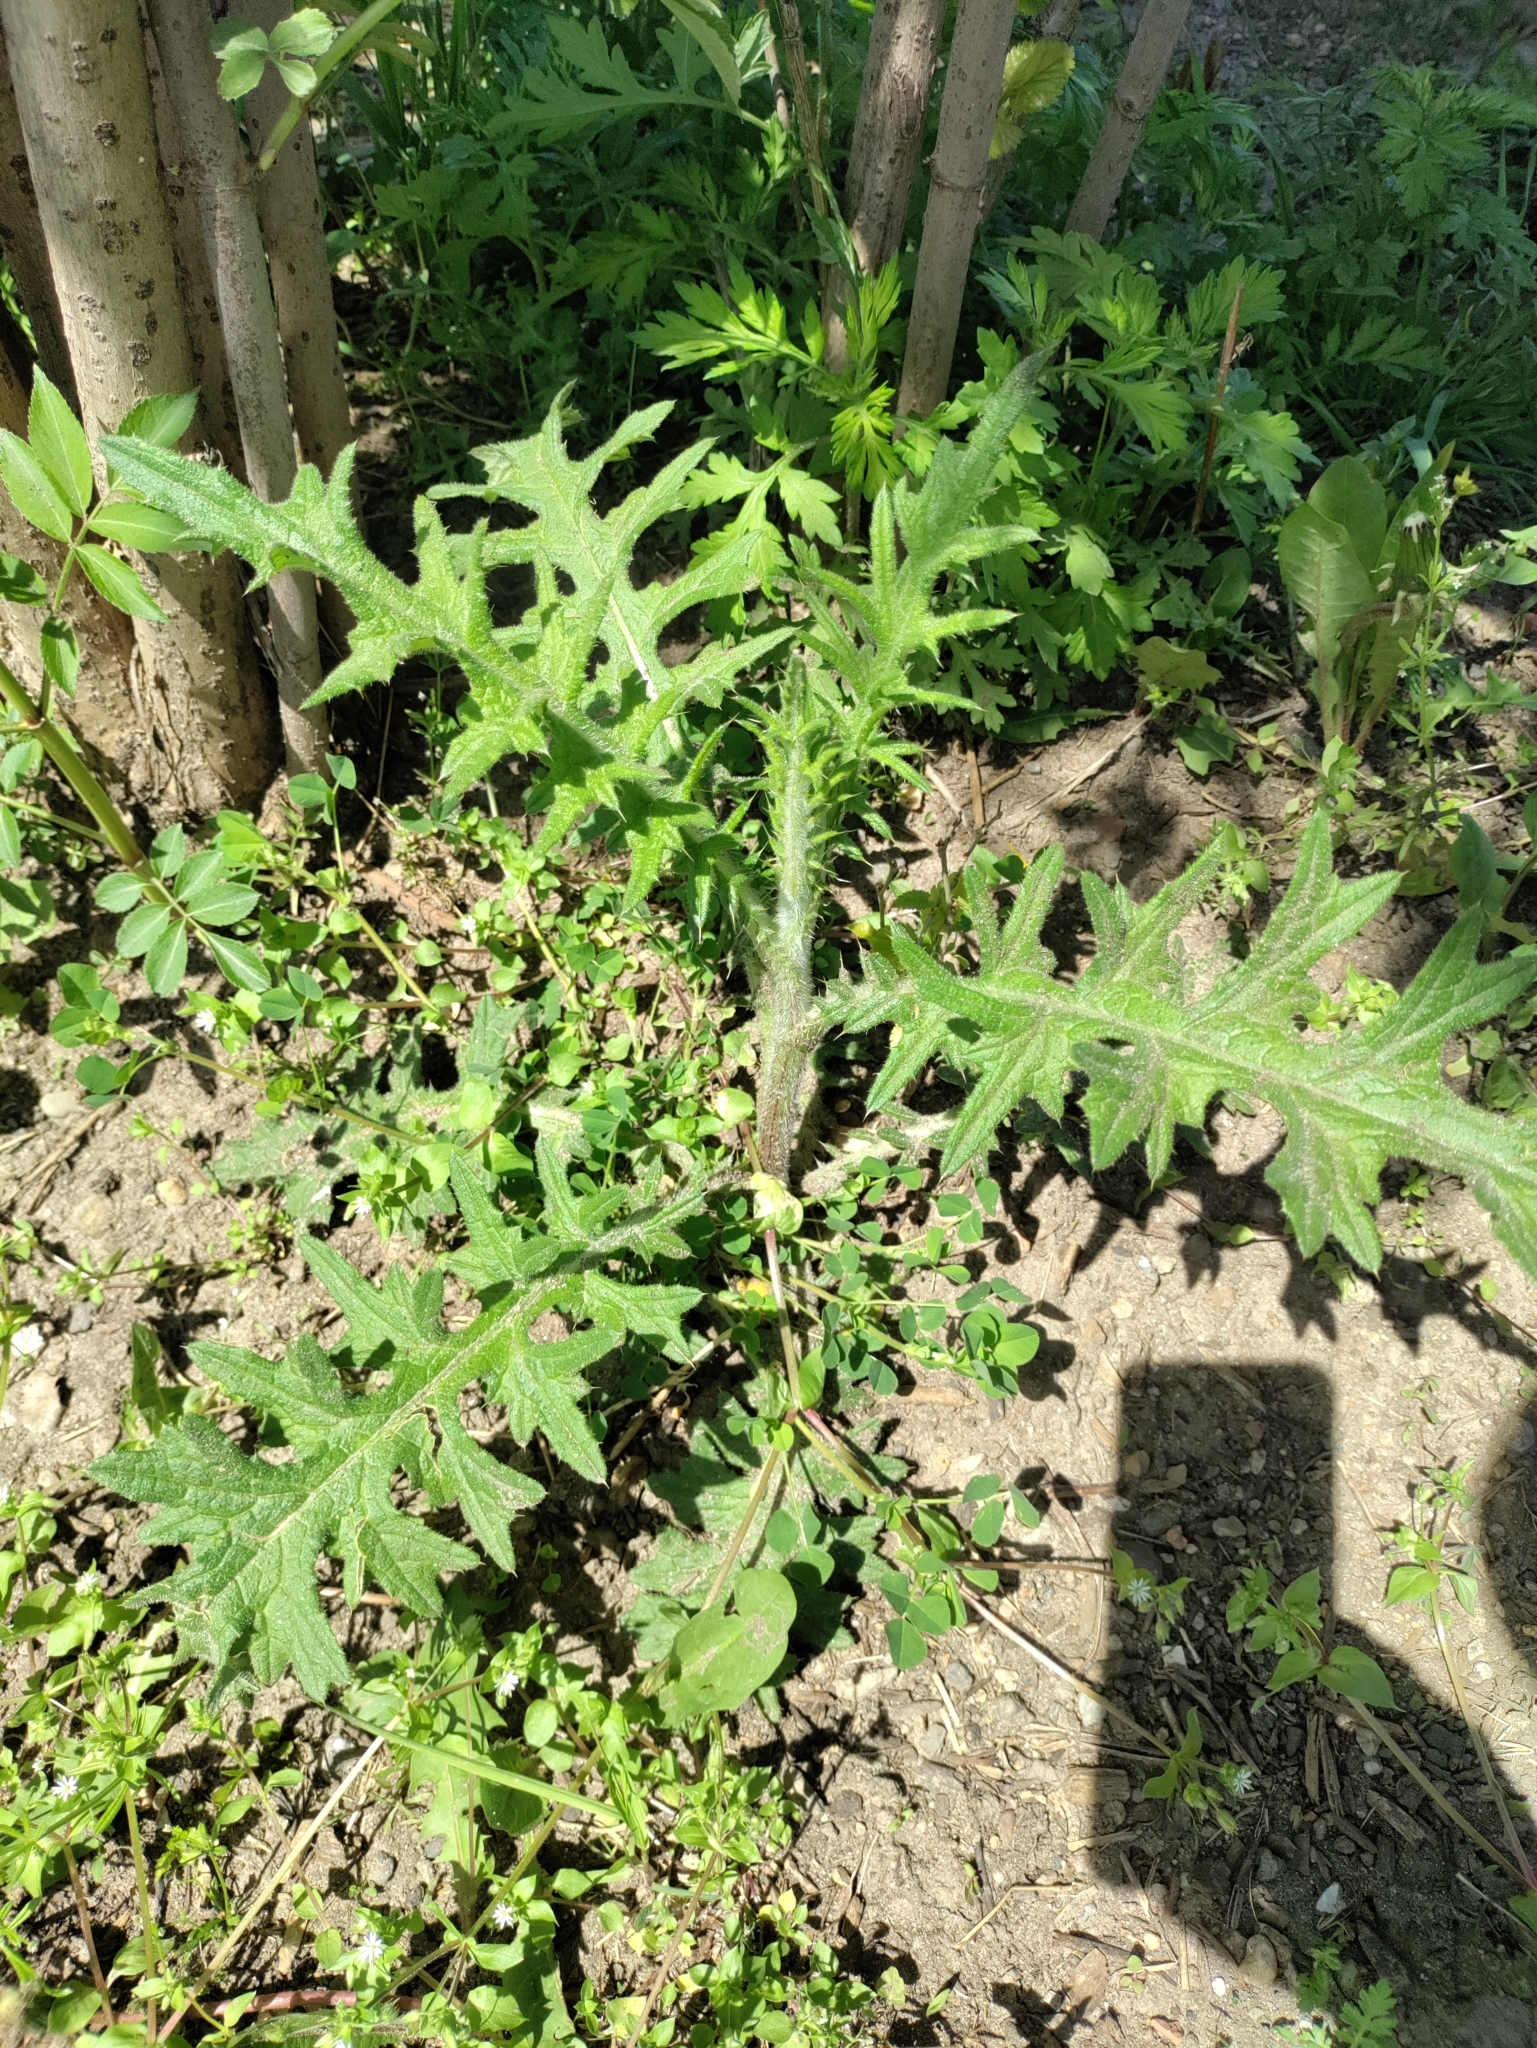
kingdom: Plantae
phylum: Tracheophyta
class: Magnoliopsida
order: Asterales
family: Asteraceae
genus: Cirsium
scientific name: Cirsium vulgare
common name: Bull thistle
